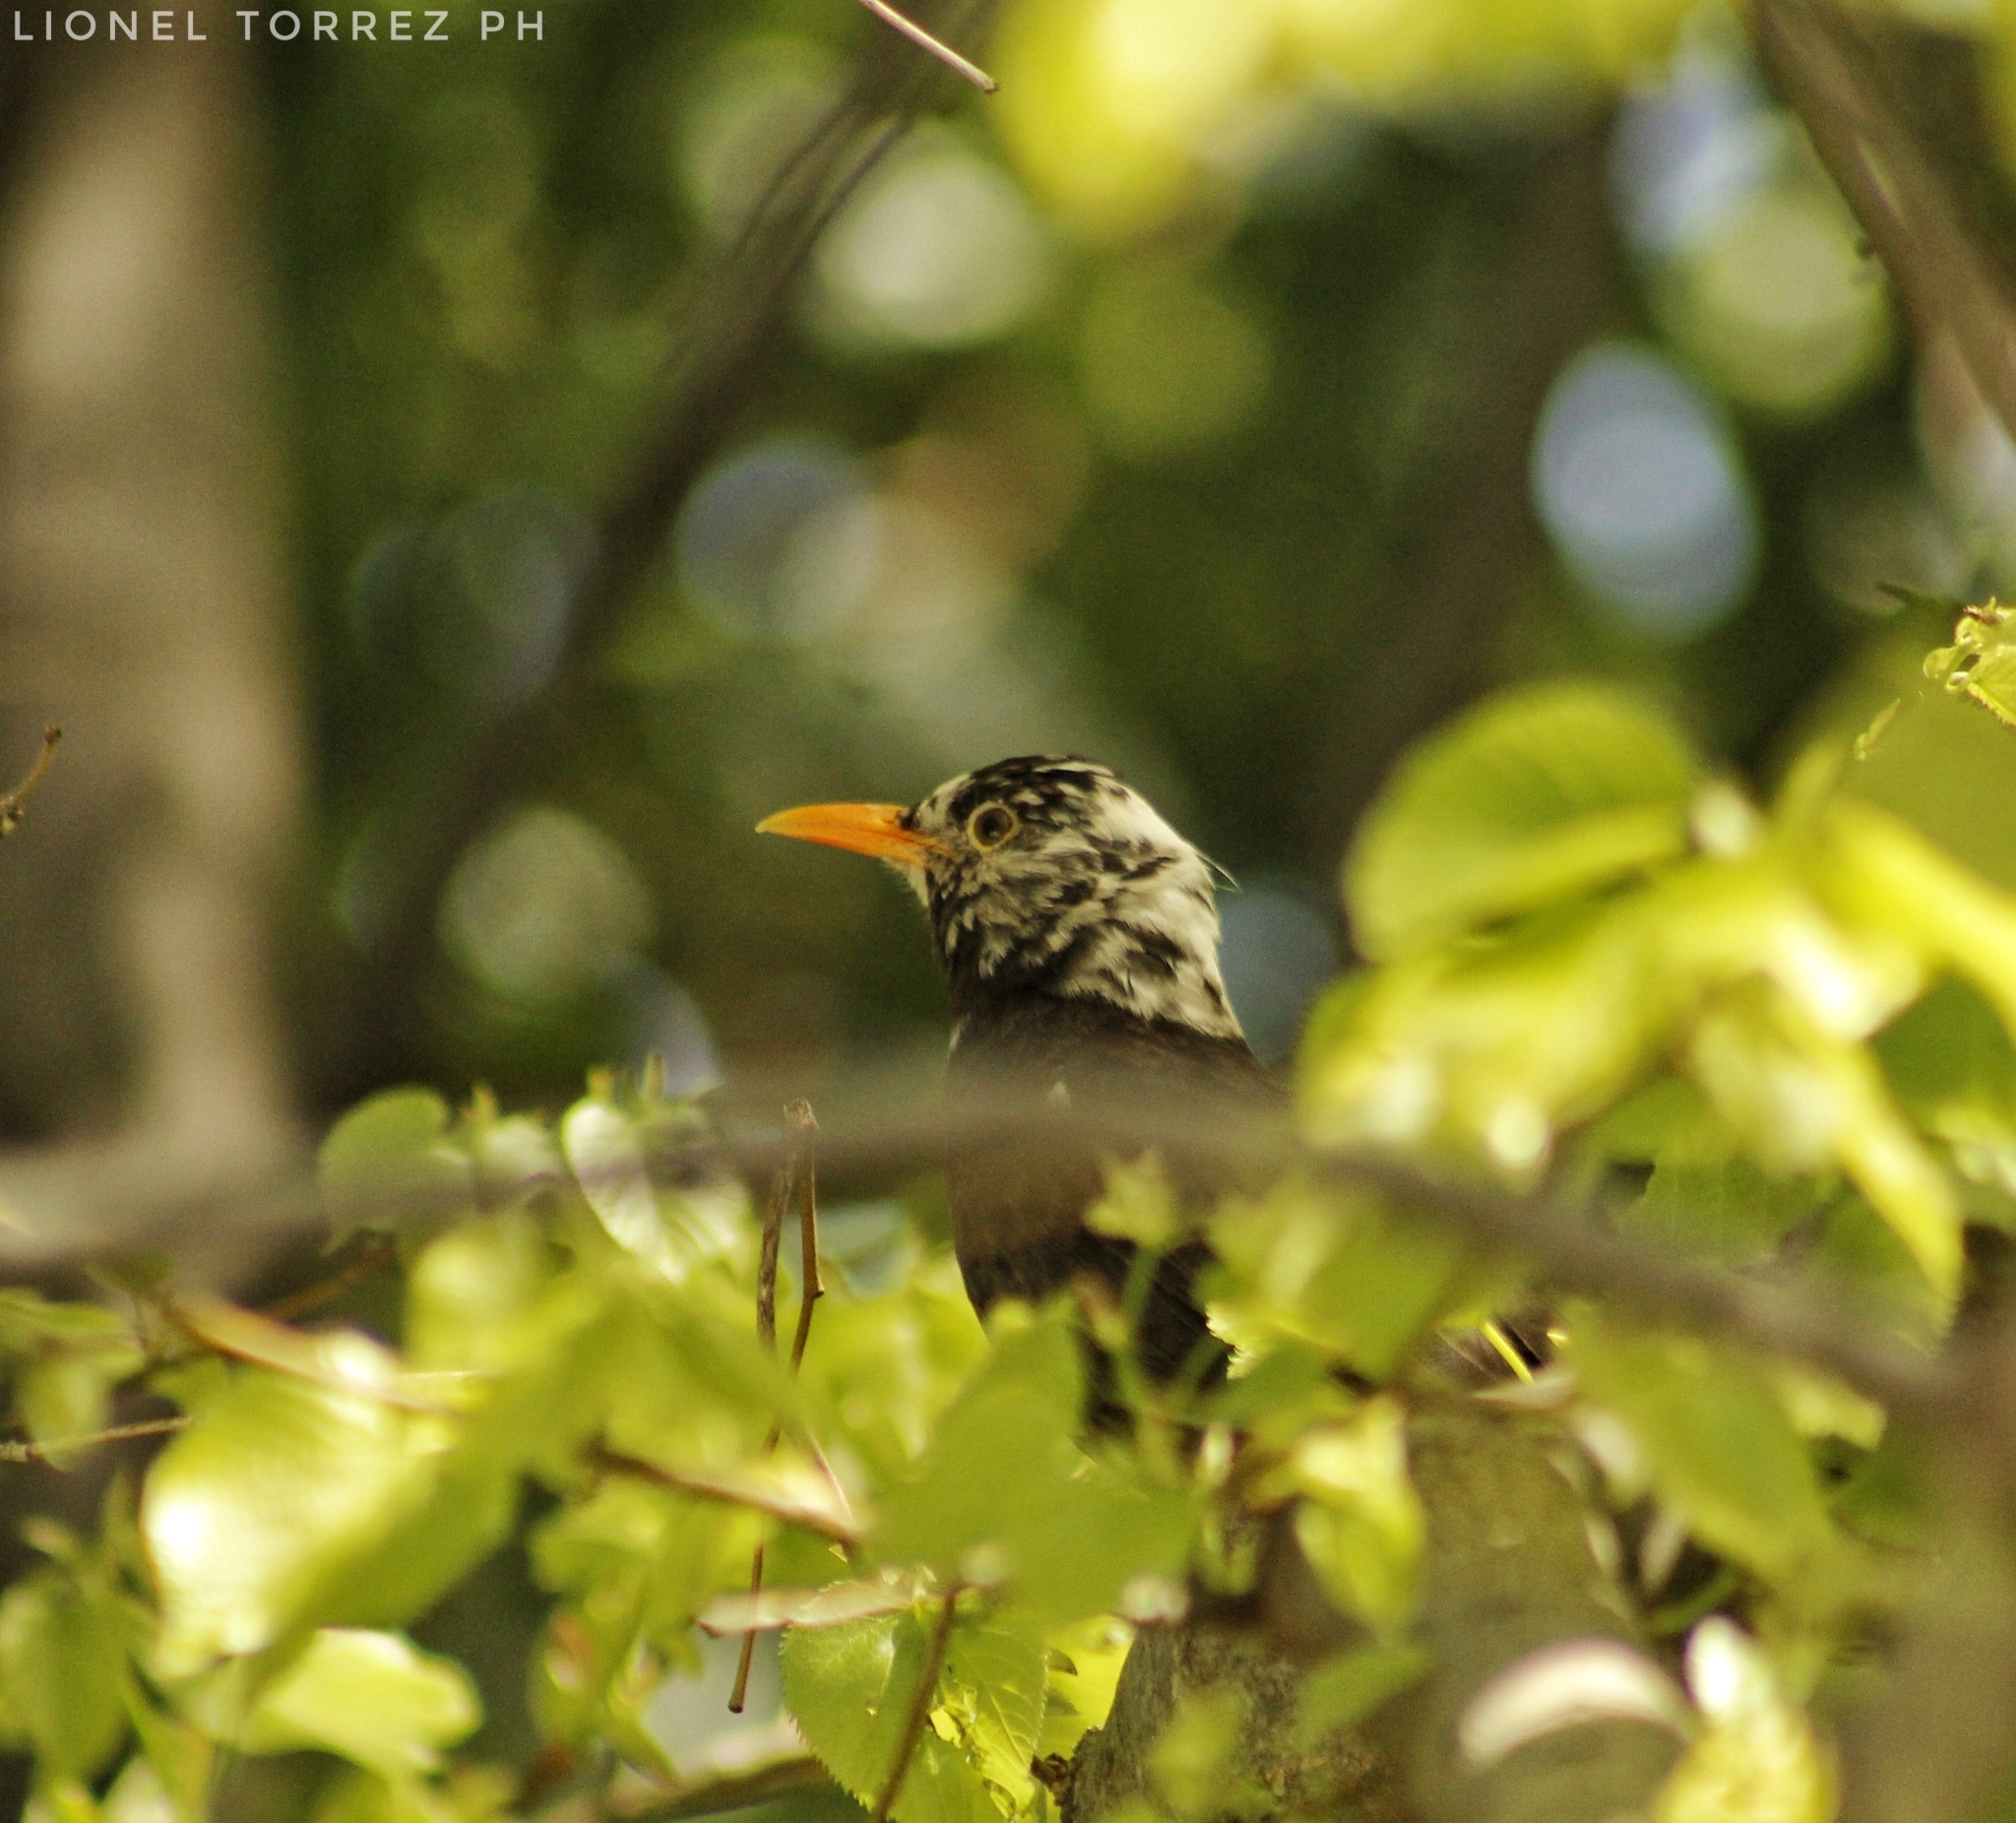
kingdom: Animalia
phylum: Chordata
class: Aves
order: Passeriformes
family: Turdidae
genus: Turdus
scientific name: Turdus chiguanco
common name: Chiguanco thrush
